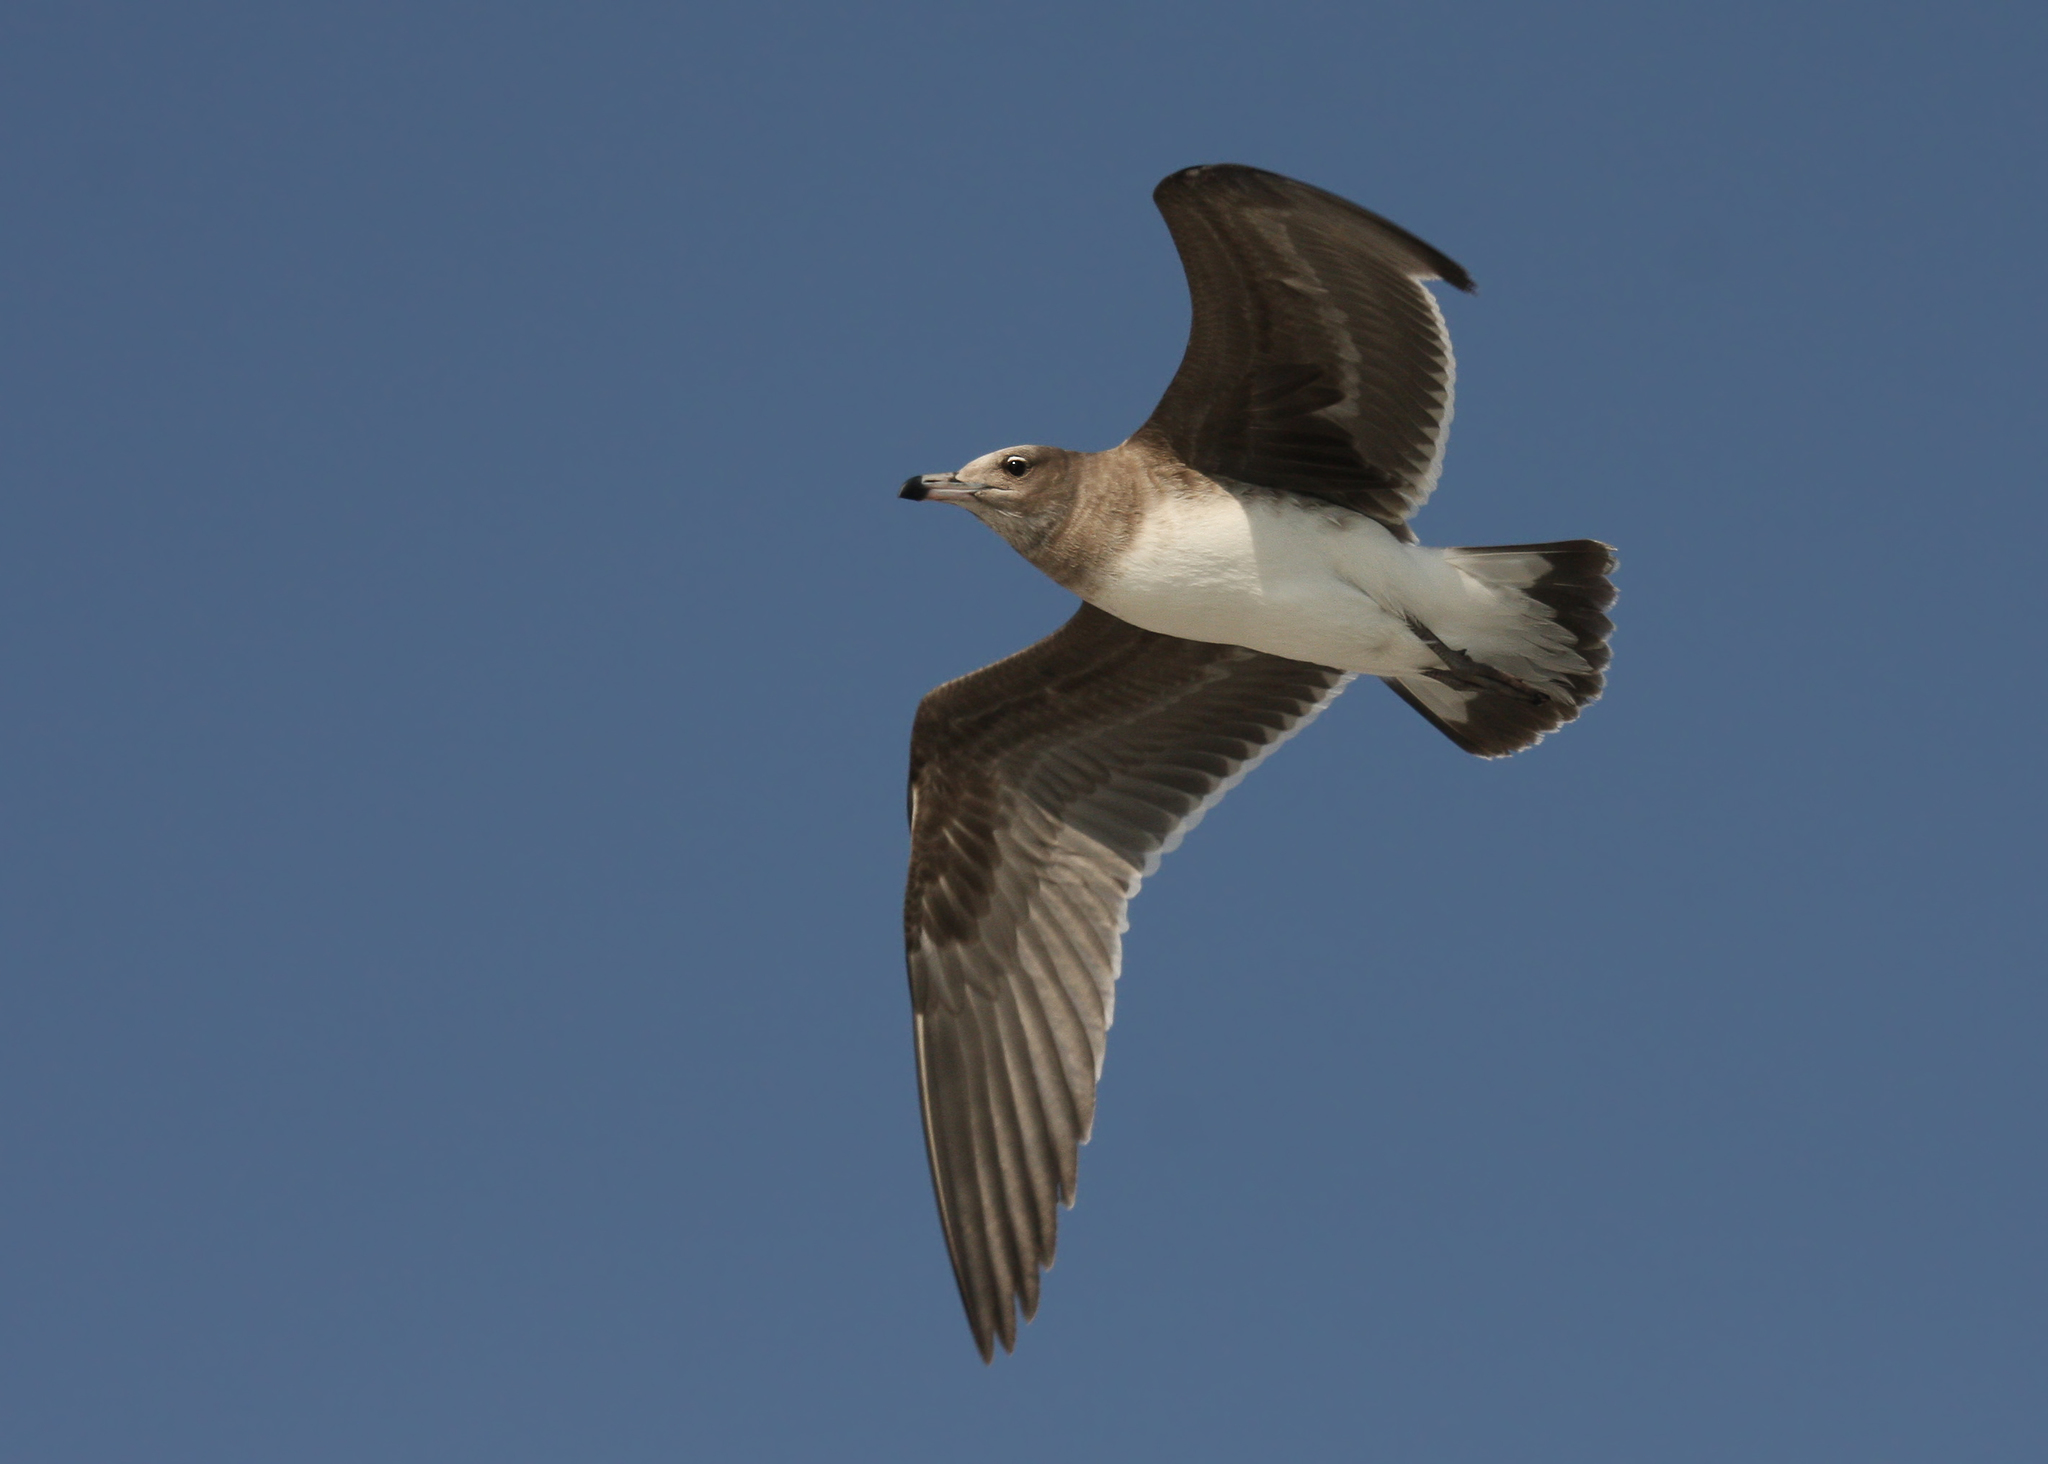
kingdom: Animalia
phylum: Chordata
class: Aves
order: Charadriiformes
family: Laridae
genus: Ichthyaetus
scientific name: Ichthyaetus hemprichii
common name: Sooty gull
